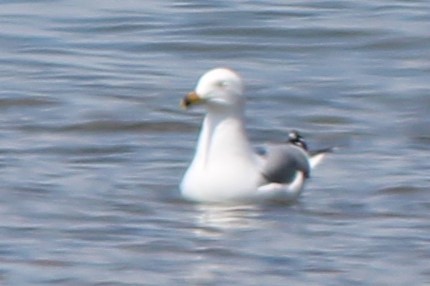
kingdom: Animalia
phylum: Chordata
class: Aves
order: Charadriiformes
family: Laridae
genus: Larus
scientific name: Larus delawarensis
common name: Ring-billed gull
